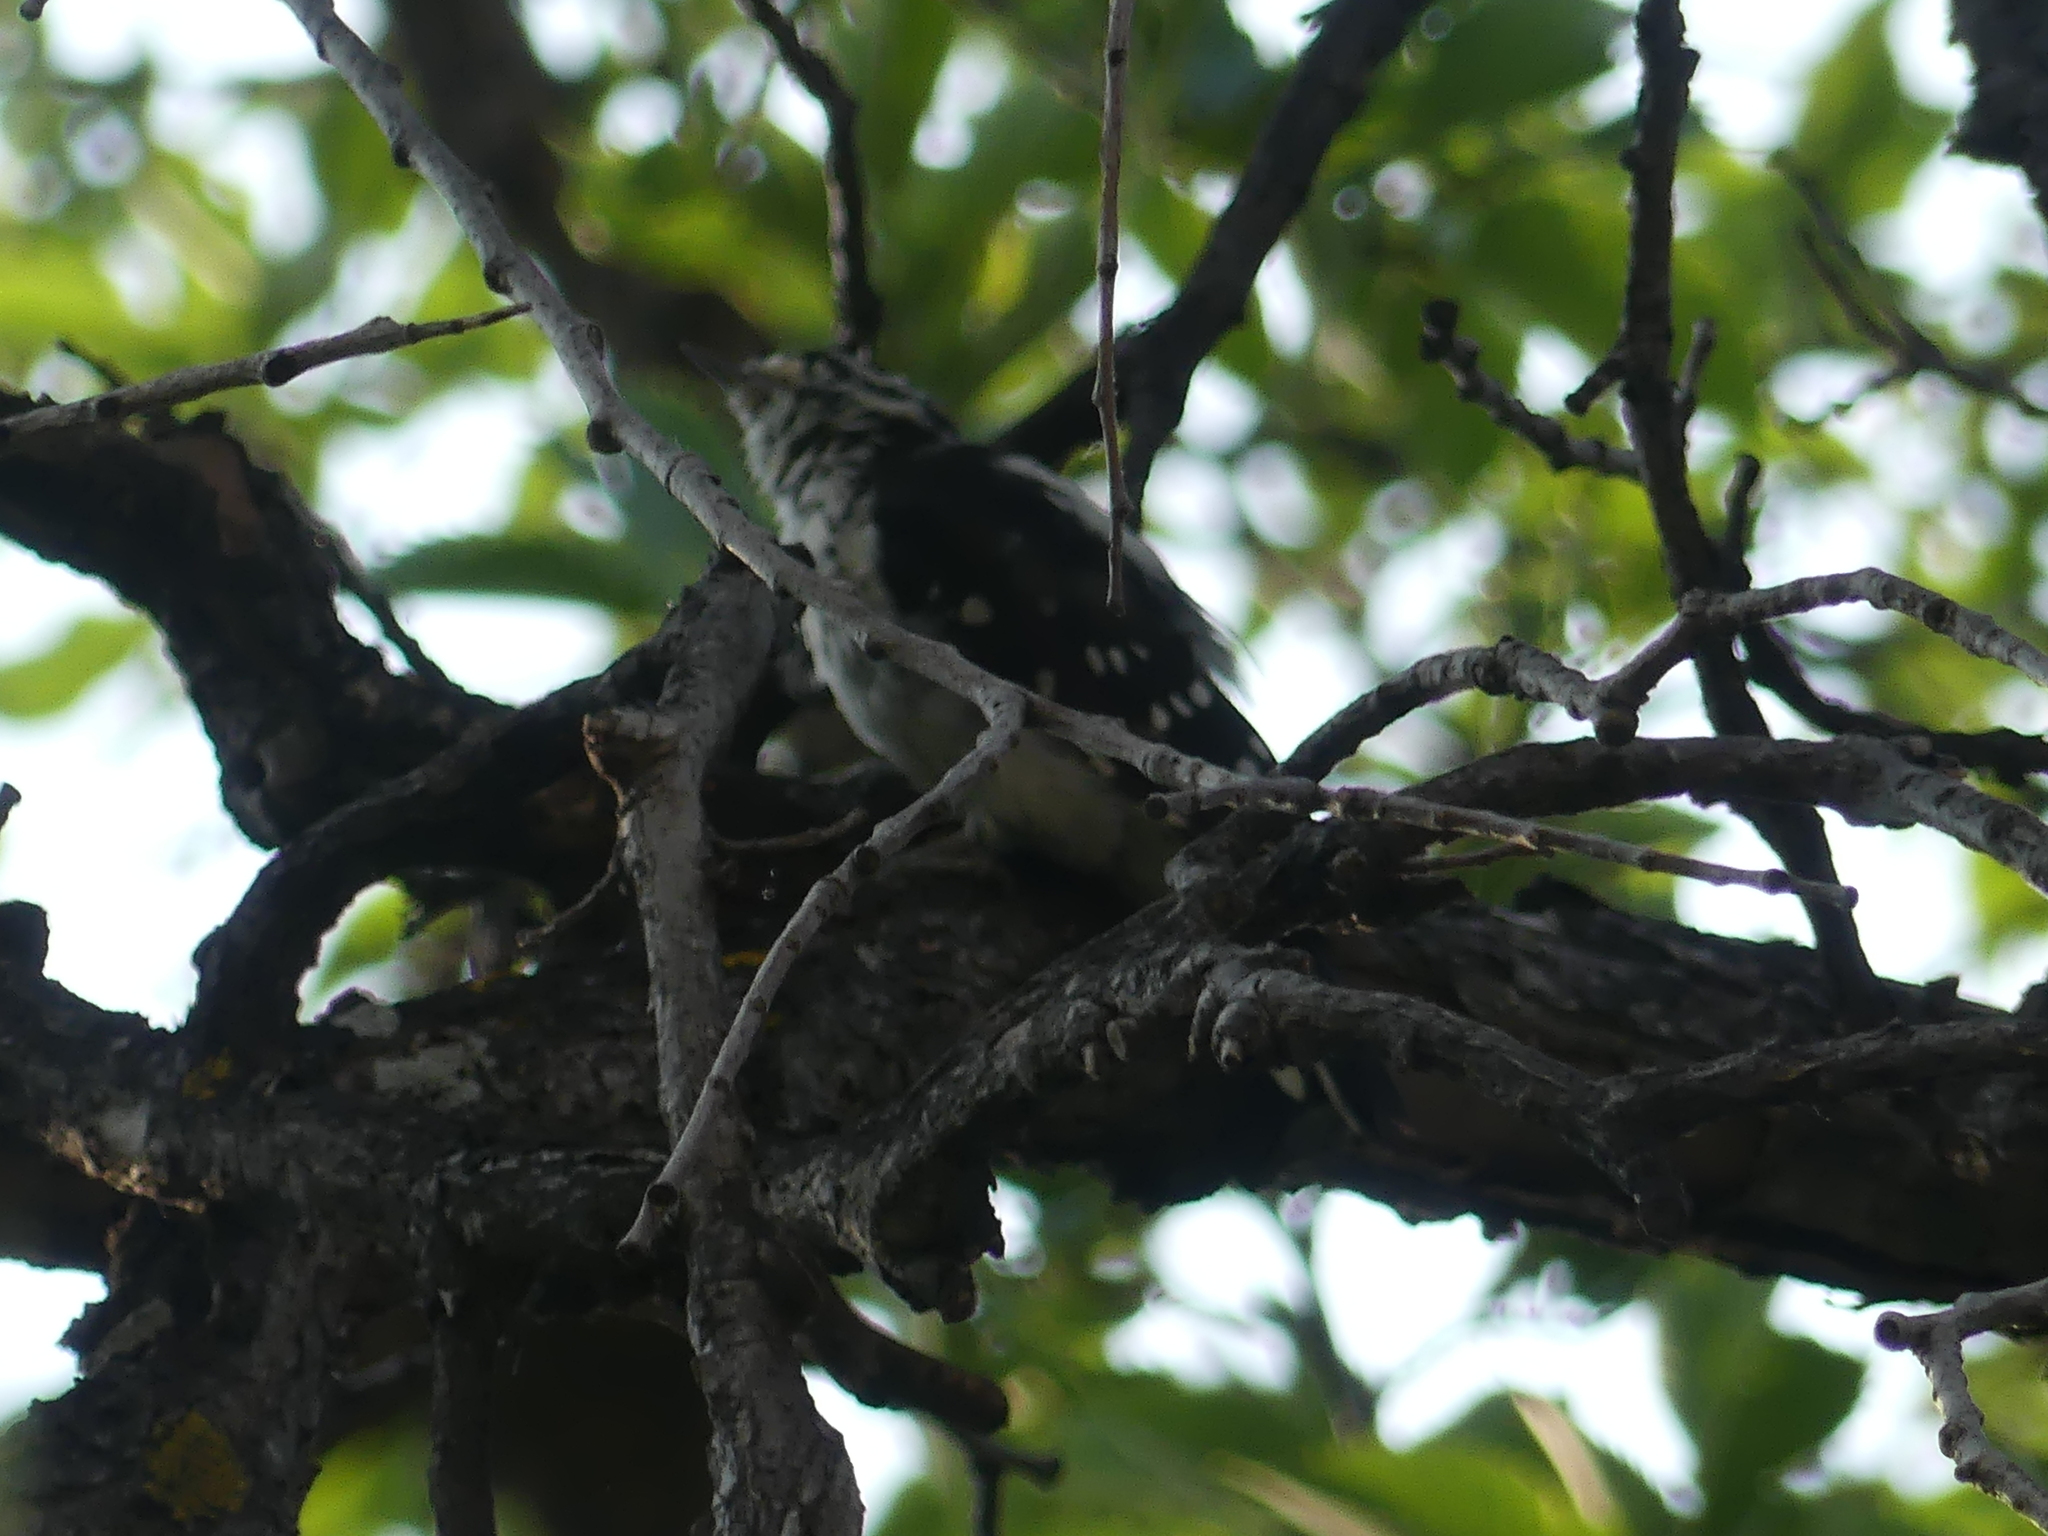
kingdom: Animalia
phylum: Chordata
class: Aves
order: Piciformes
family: Picidae
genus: Dryobates
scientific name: Dryobates pubescens
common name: Downy woodpecker
